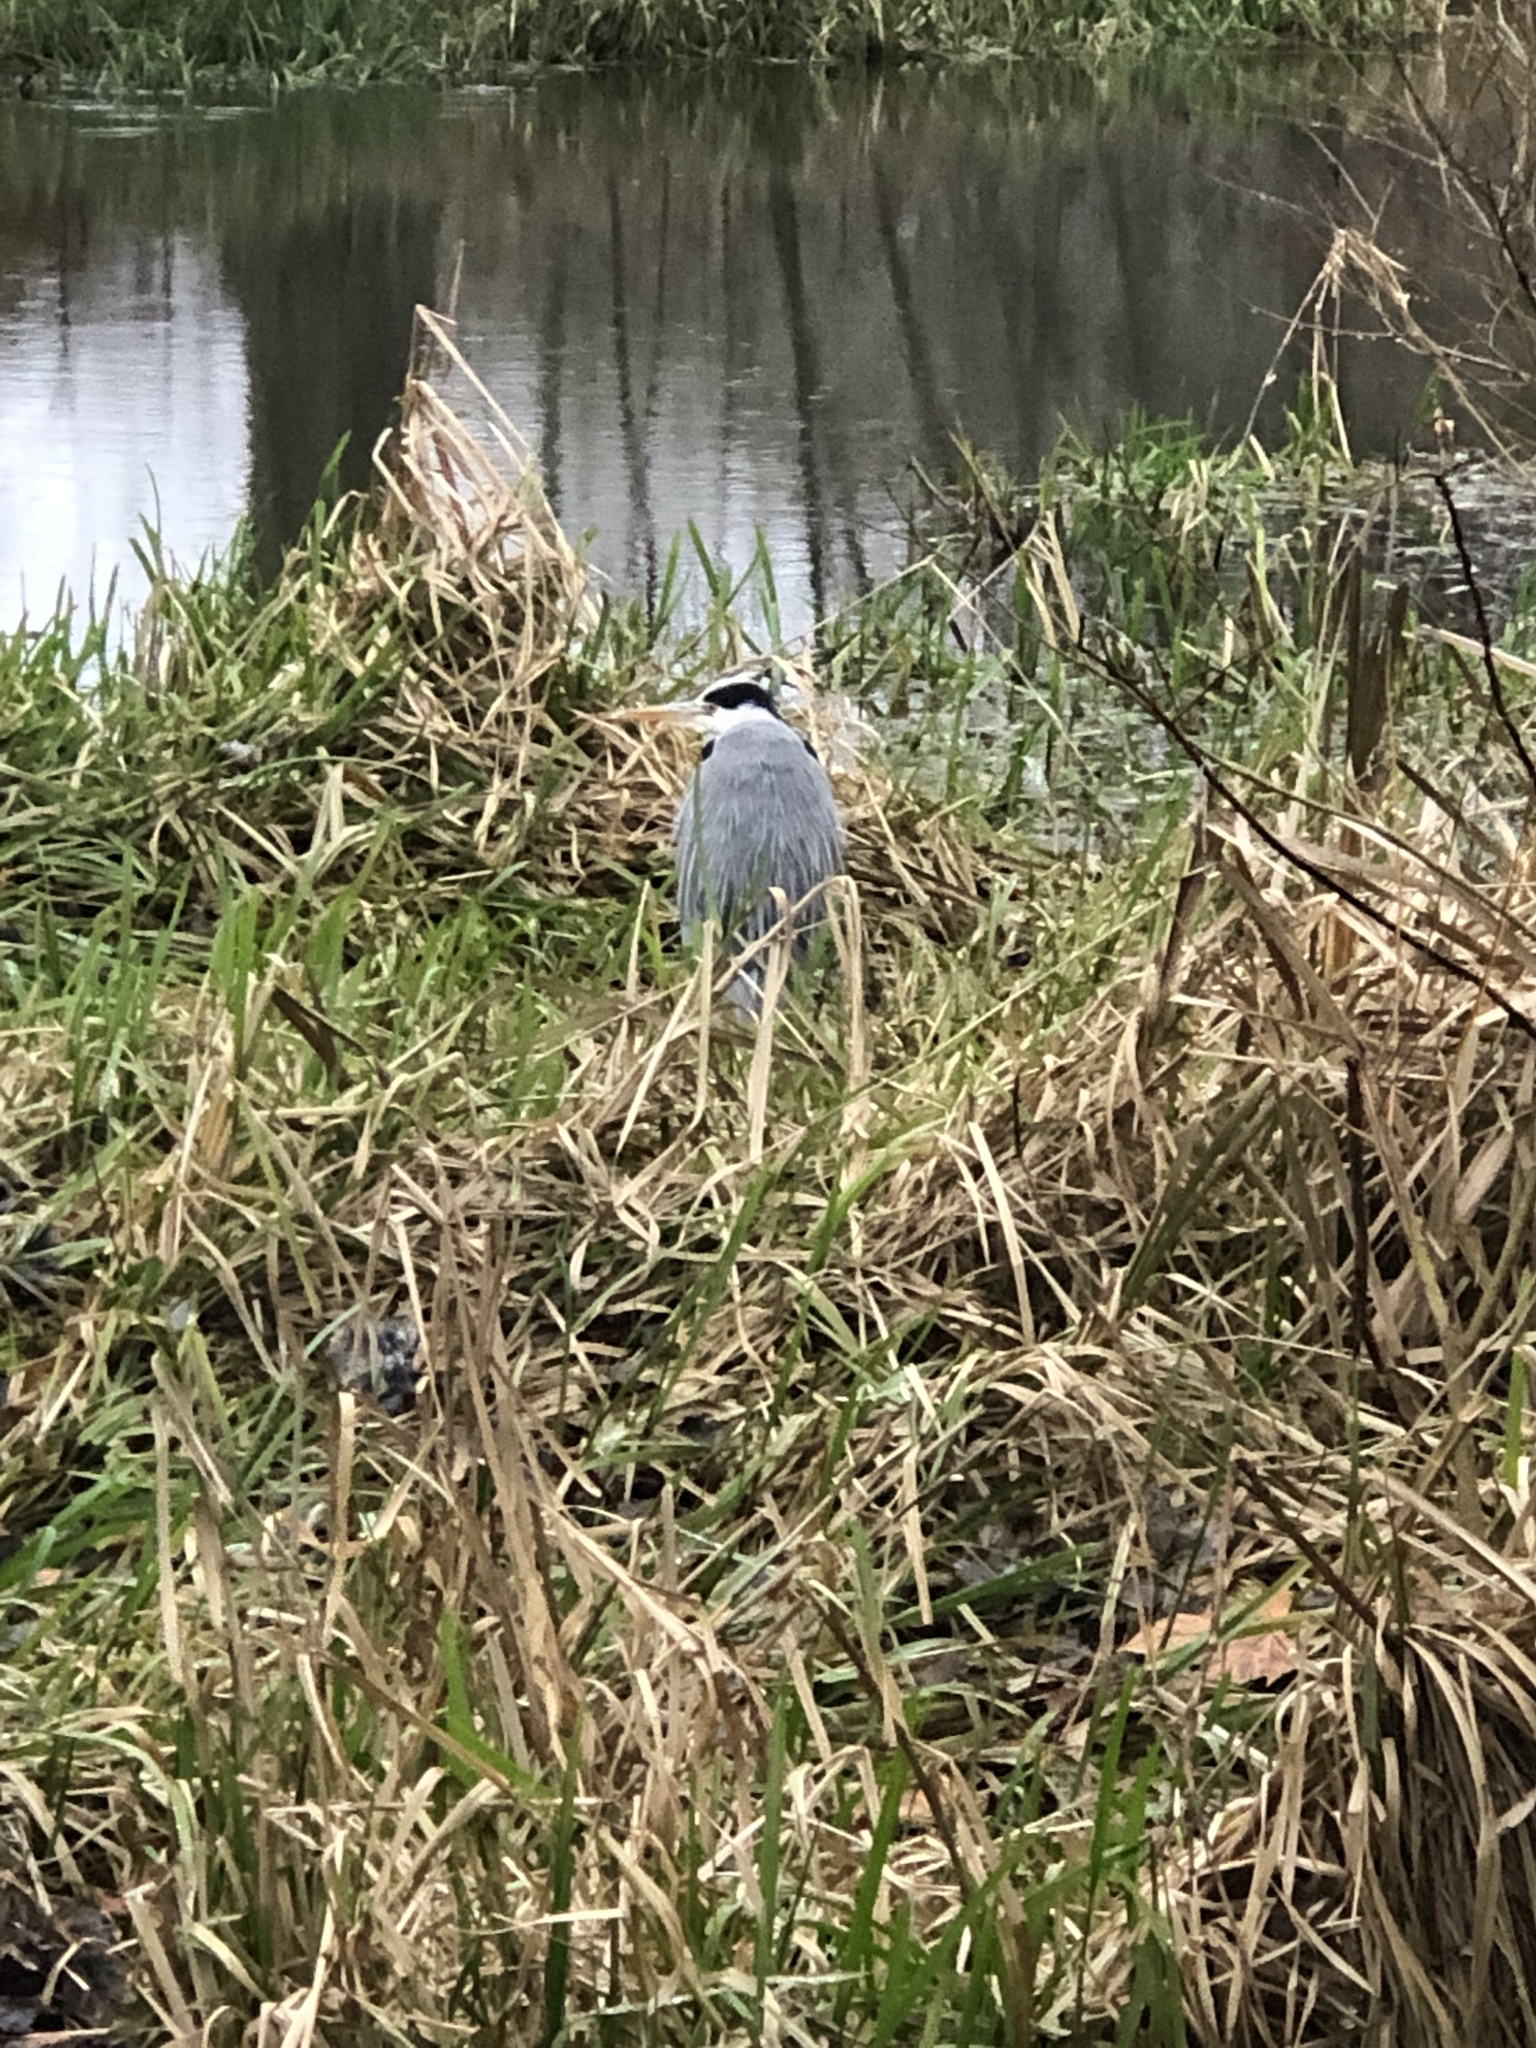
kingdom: Animalia
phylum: Chordata
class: Aves
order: Pelecaniformes
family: Ardeidae
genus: Ardea
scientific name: Ardea cinerea
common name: Grey heron
